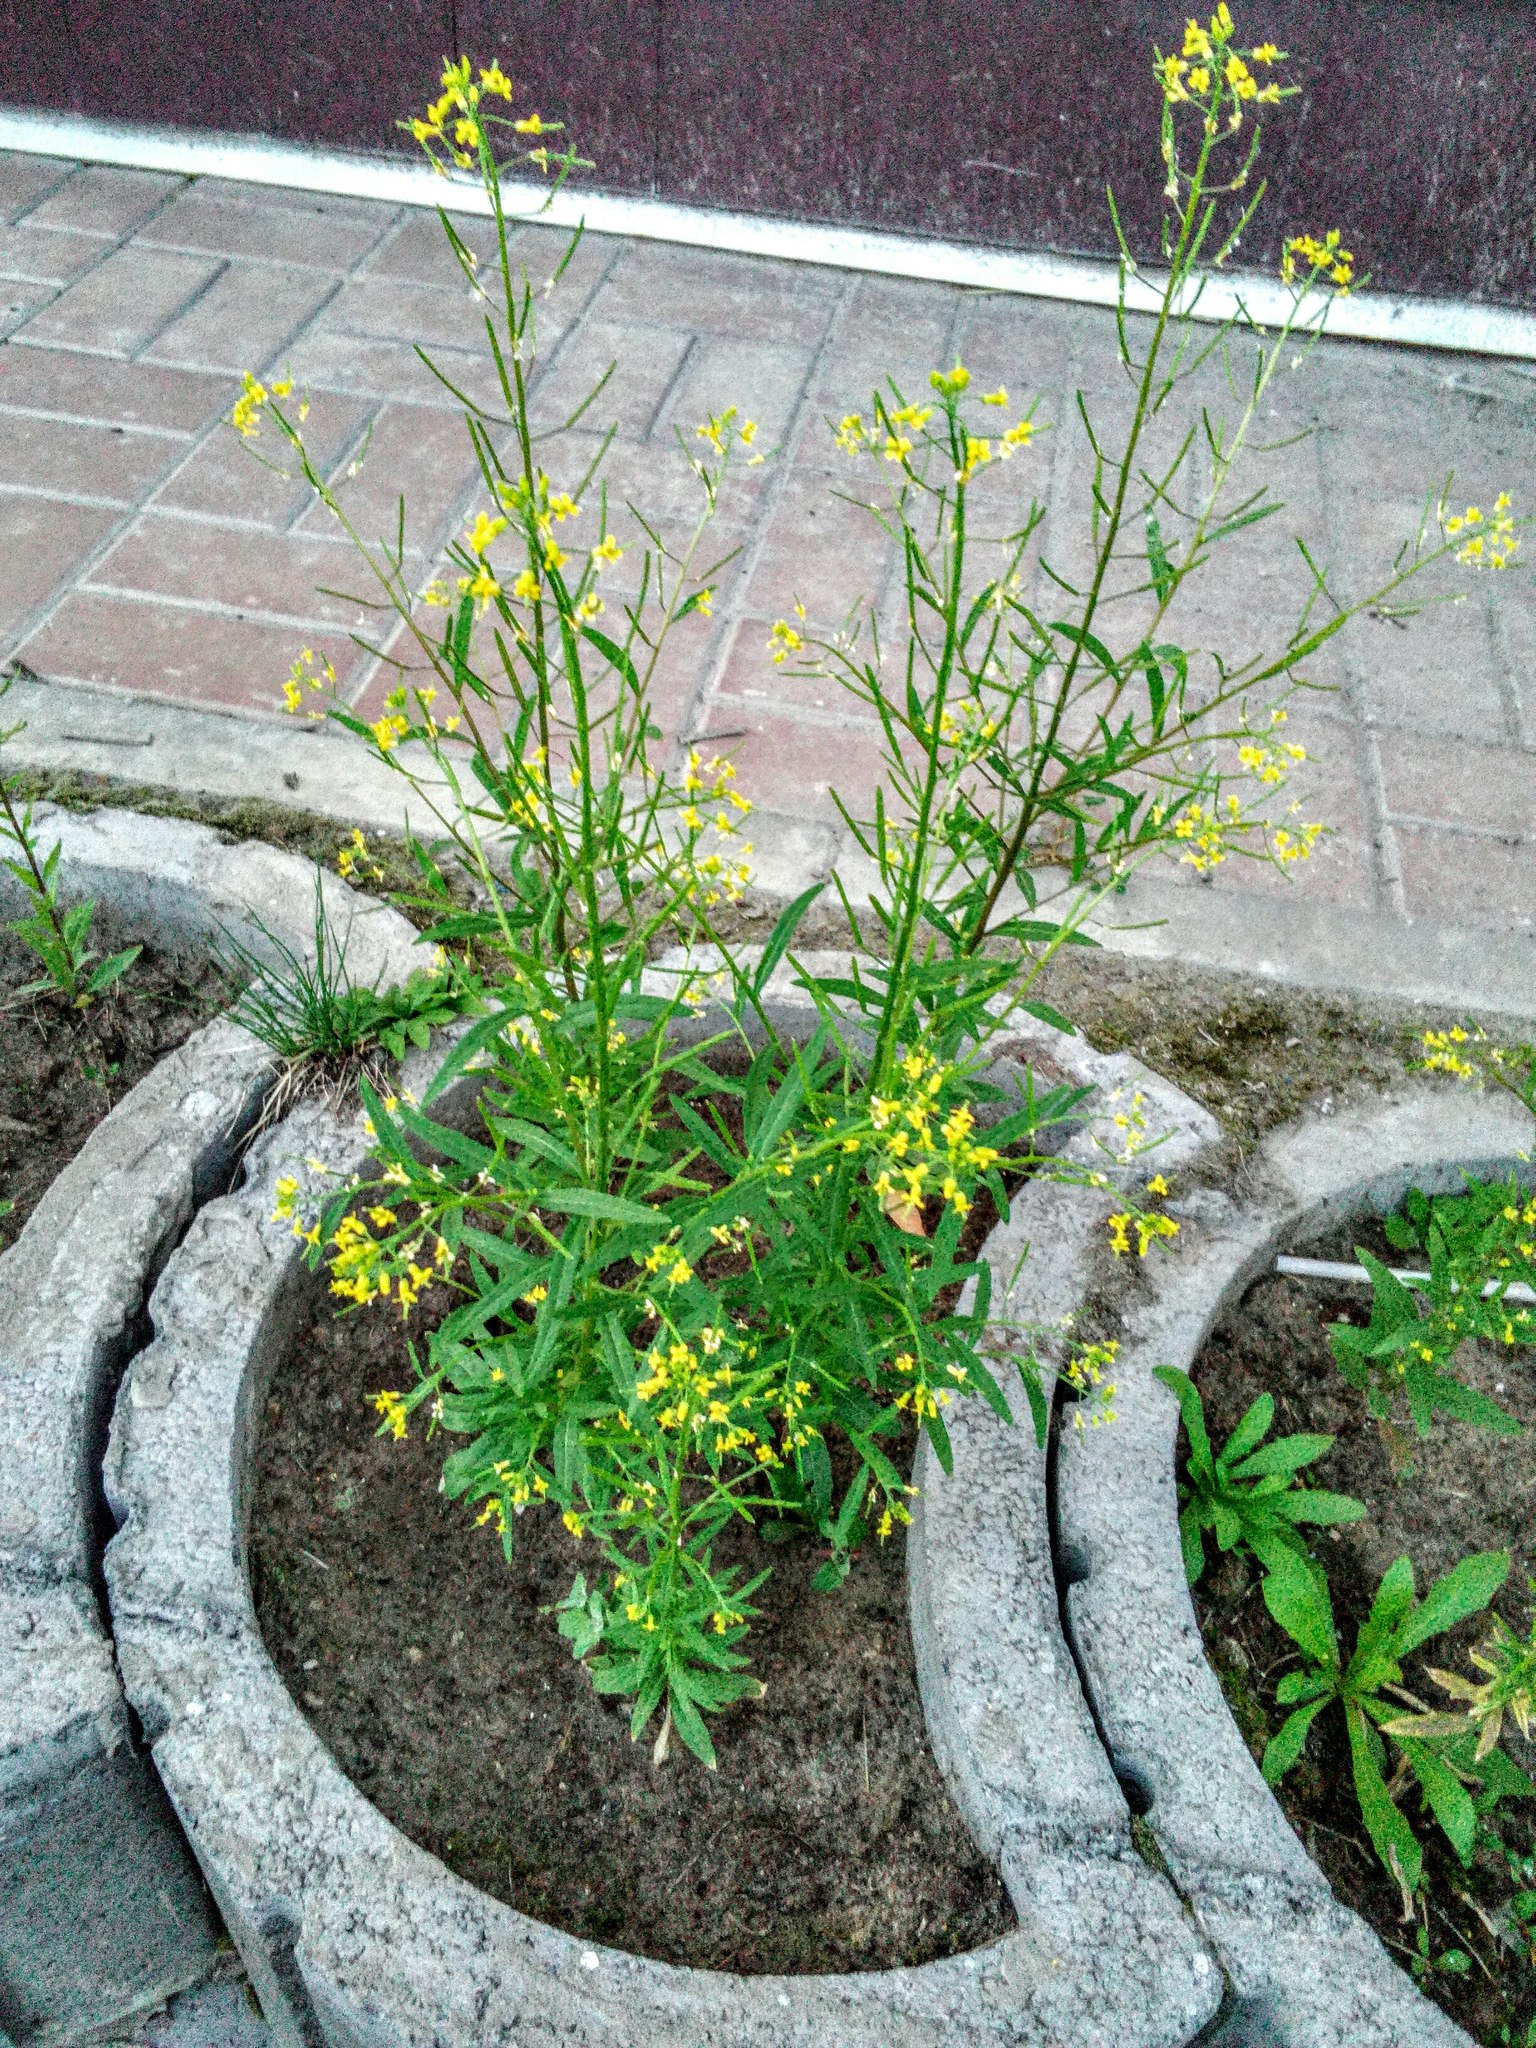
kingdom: Plantae
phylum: Tracheophyta
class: Magnoliopsida
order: Brassicales
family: Brassicaceae
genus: Erysimum
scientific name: Erysimum cheiranthoides
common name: Treacle mustard
